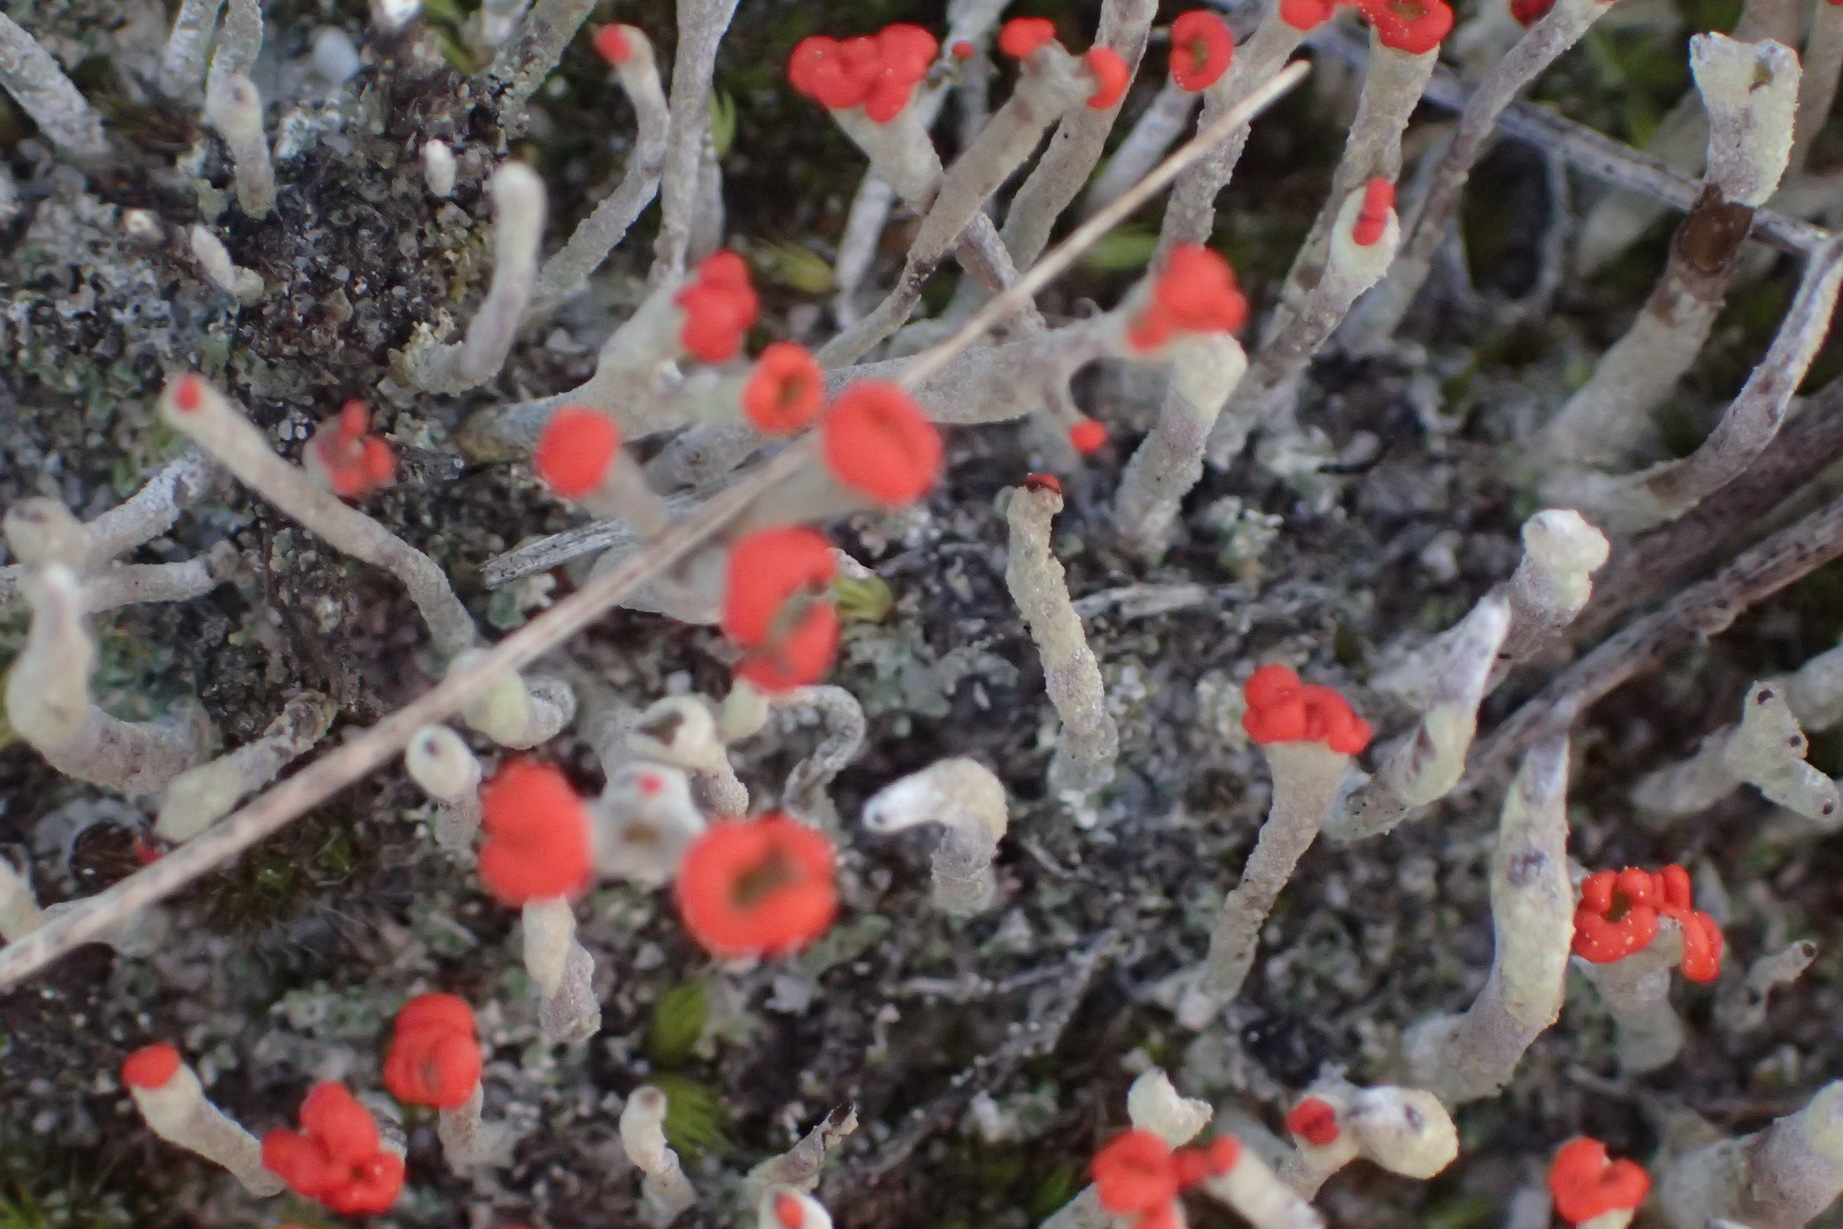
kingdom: Fungi
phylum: Ascomycota
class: Lecanoromycetes
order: Lecanorales
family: Cladoniaceae
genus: Cladonia
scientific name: Cladonia macilenta
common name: Lipstick powderhorn
